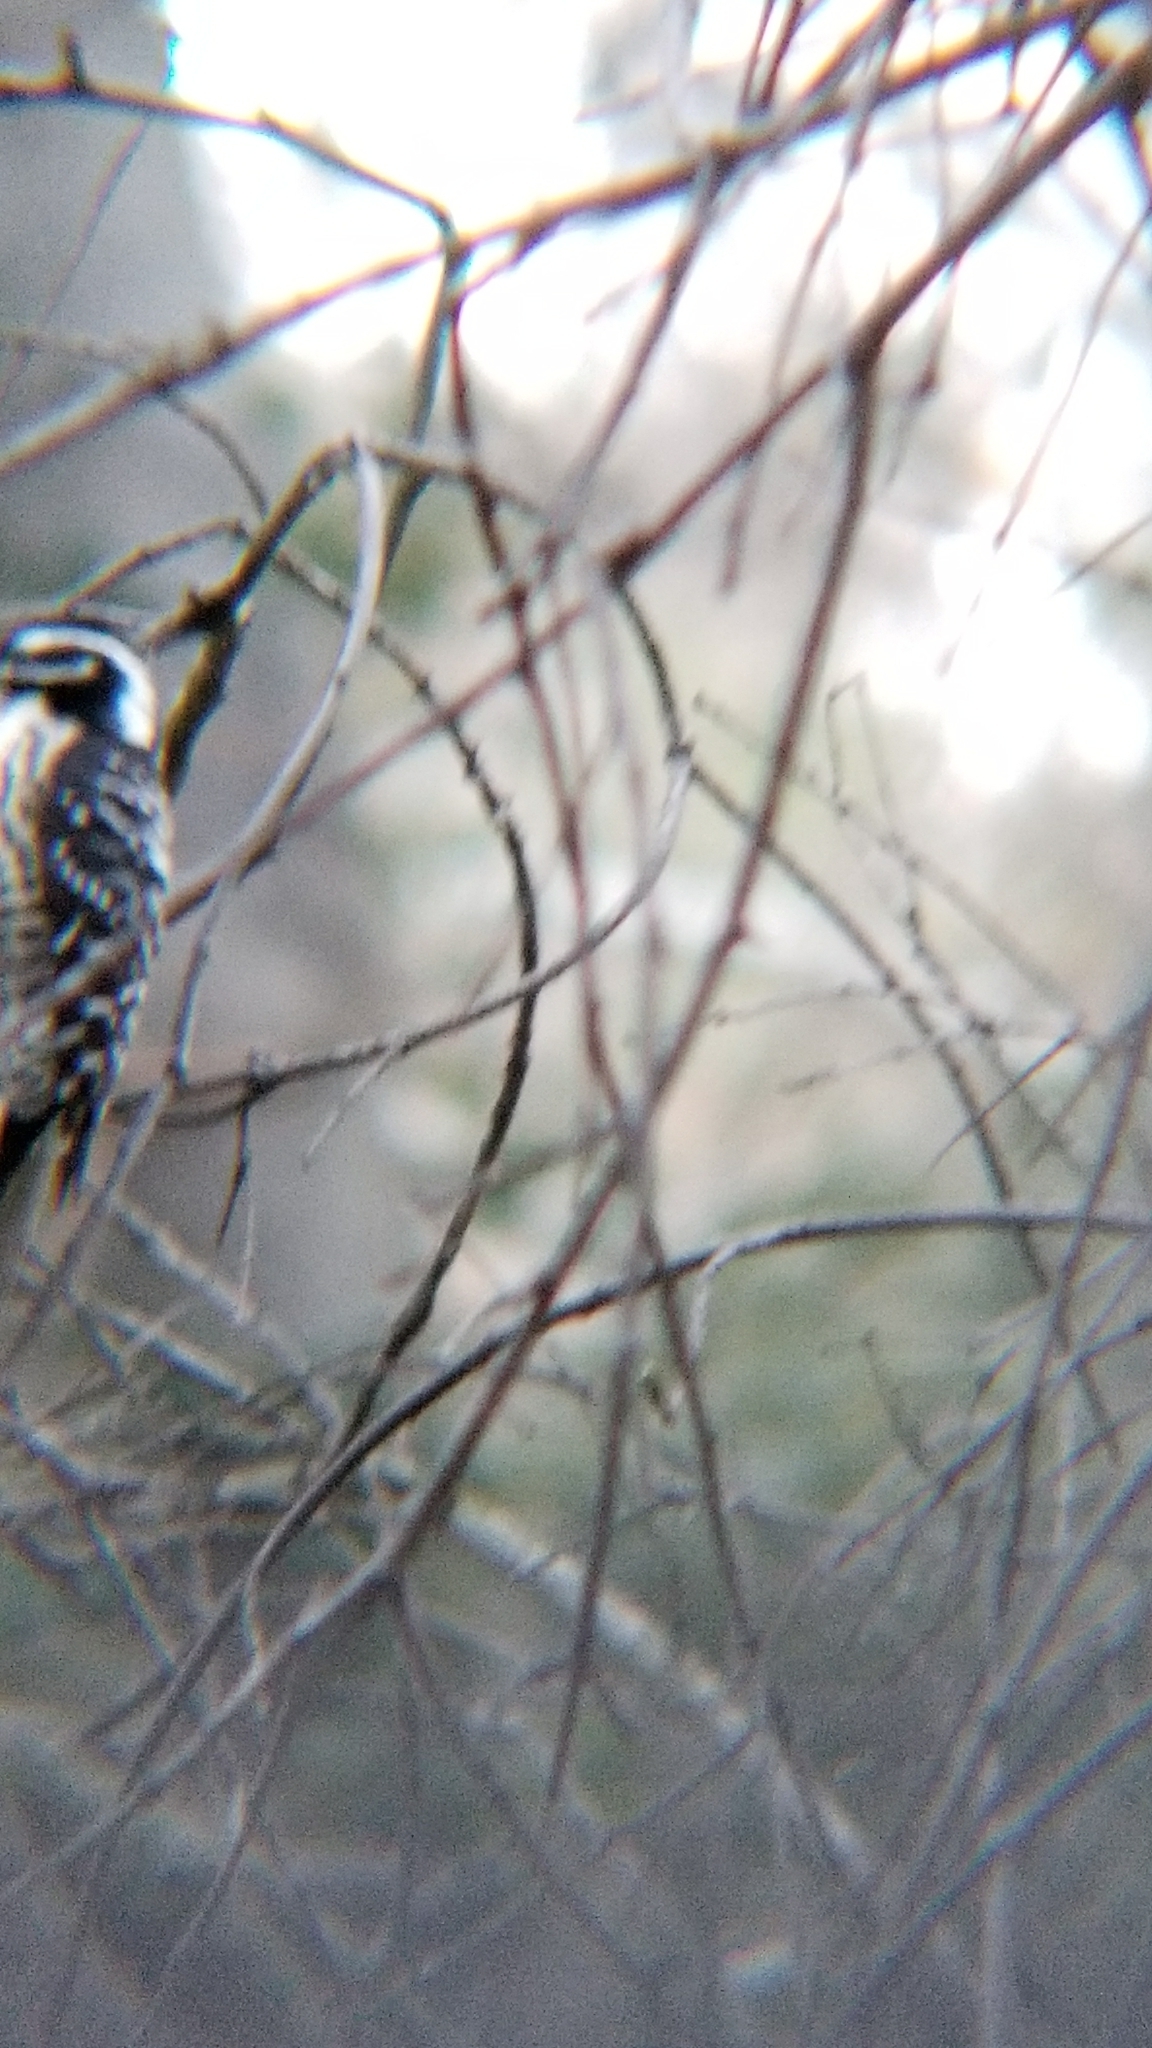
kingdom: Animalia
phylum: Chordata
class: Aves
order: Piciformes
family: Picidae
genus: Dryobates
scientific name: Dryobates nuttallii
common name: Nuttall's woodpecker
